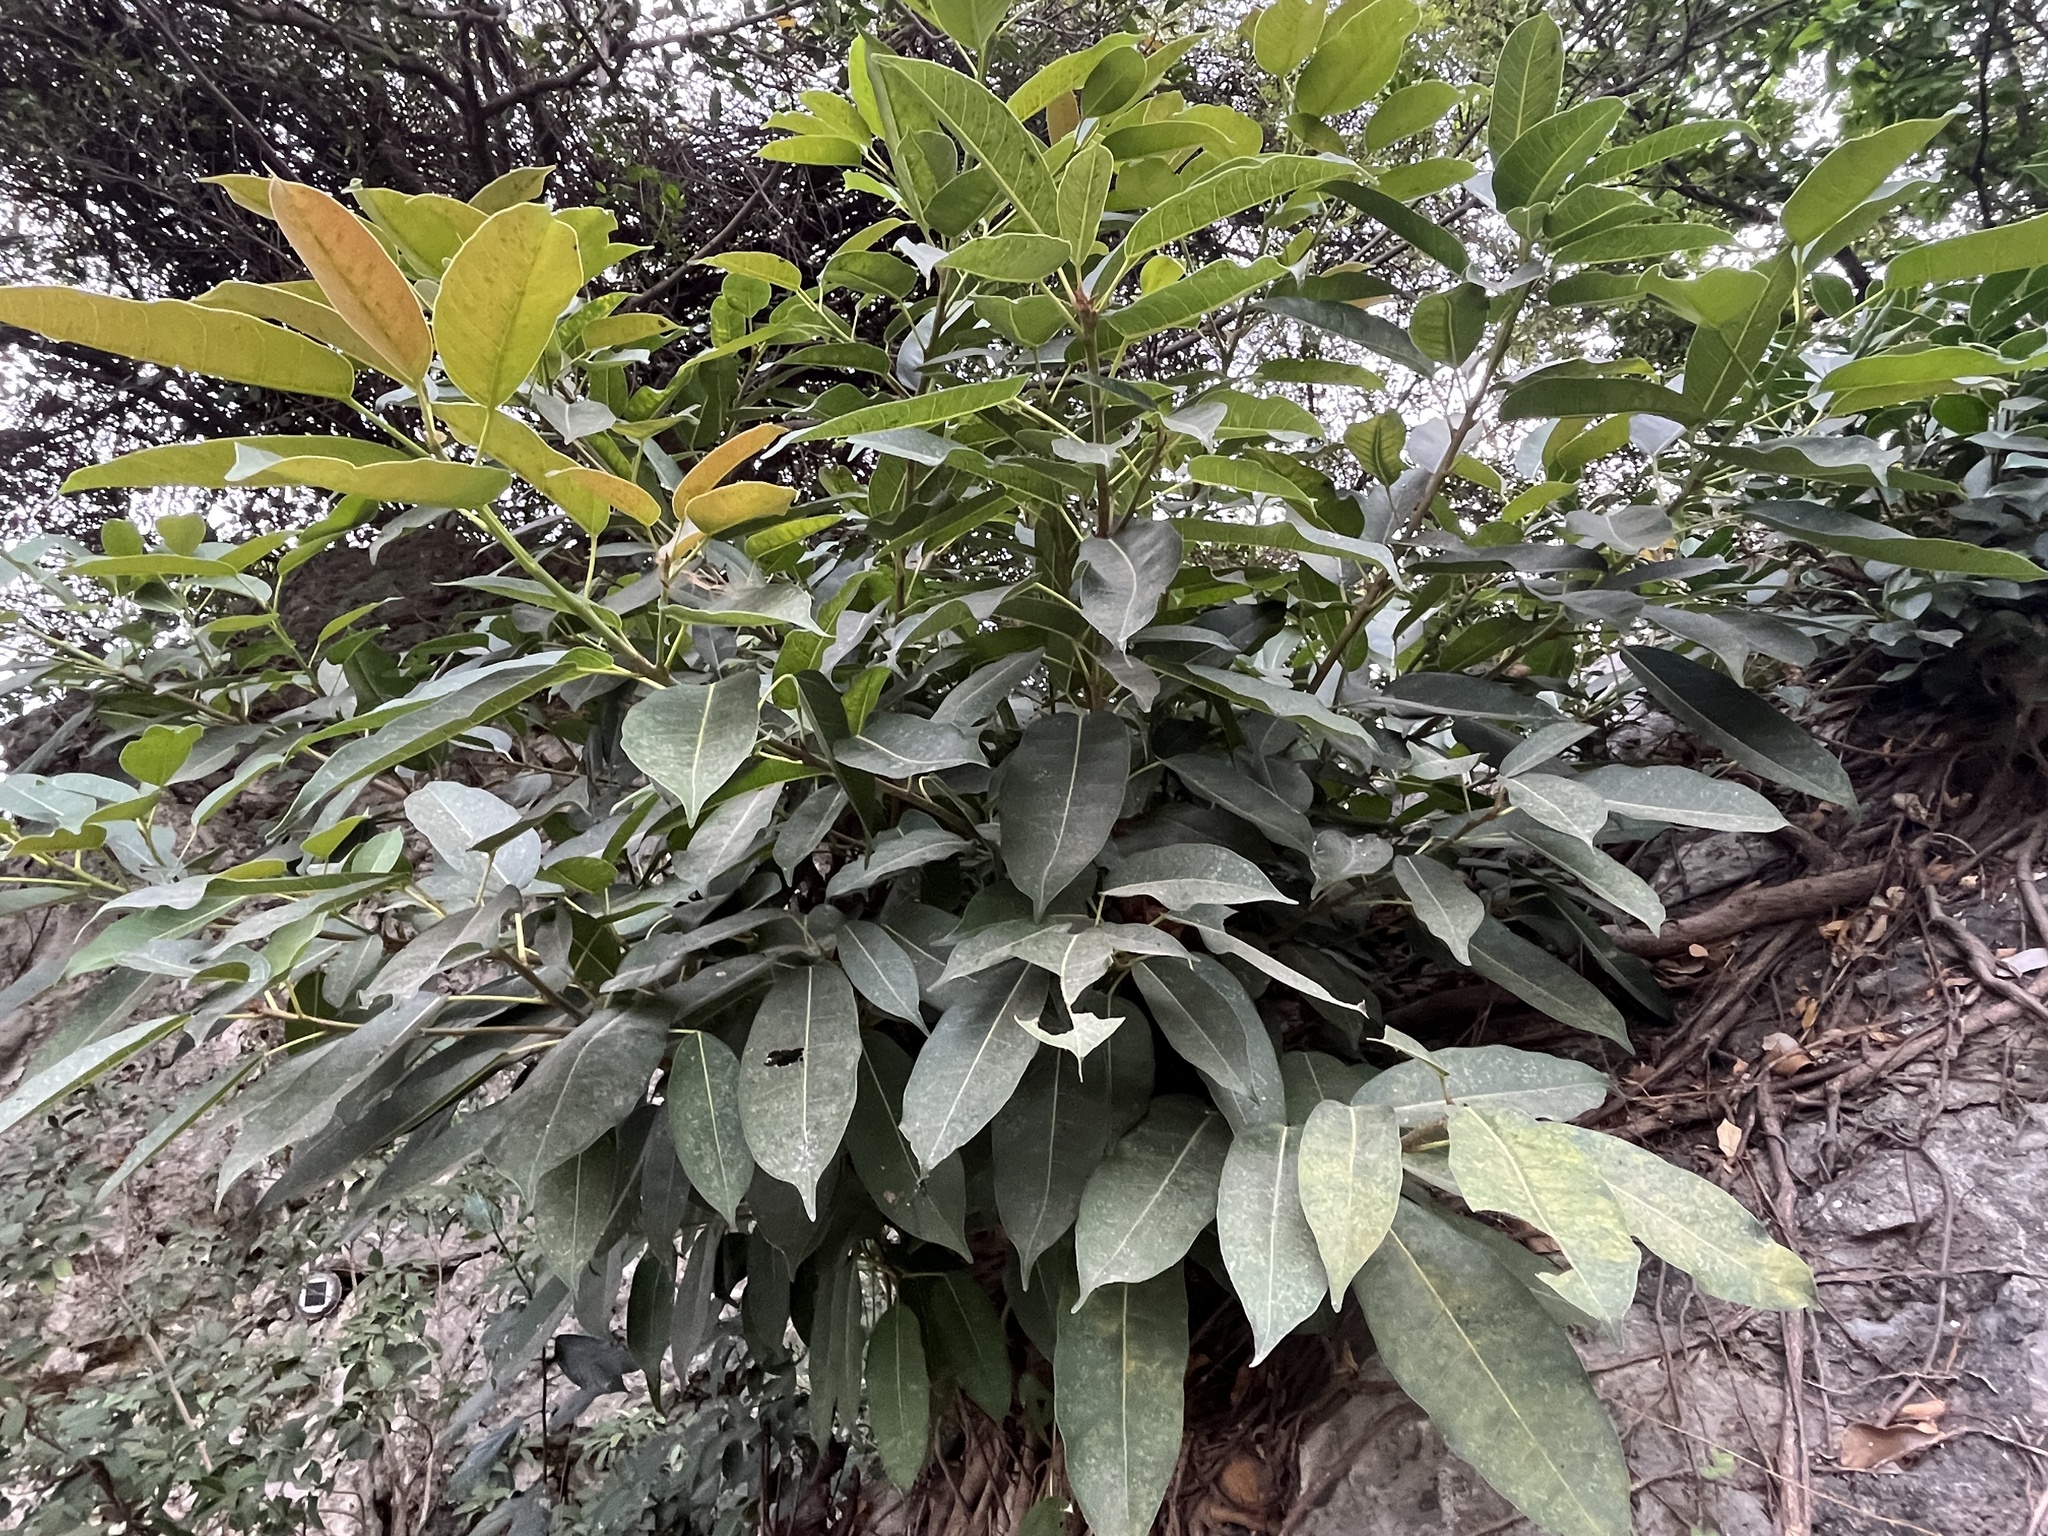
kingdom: Plantae
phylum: Tracheophyta
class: Magnoliopsida
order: Rosales
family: Moraceae
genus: Ficus
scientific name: Ficus caulocarpa
